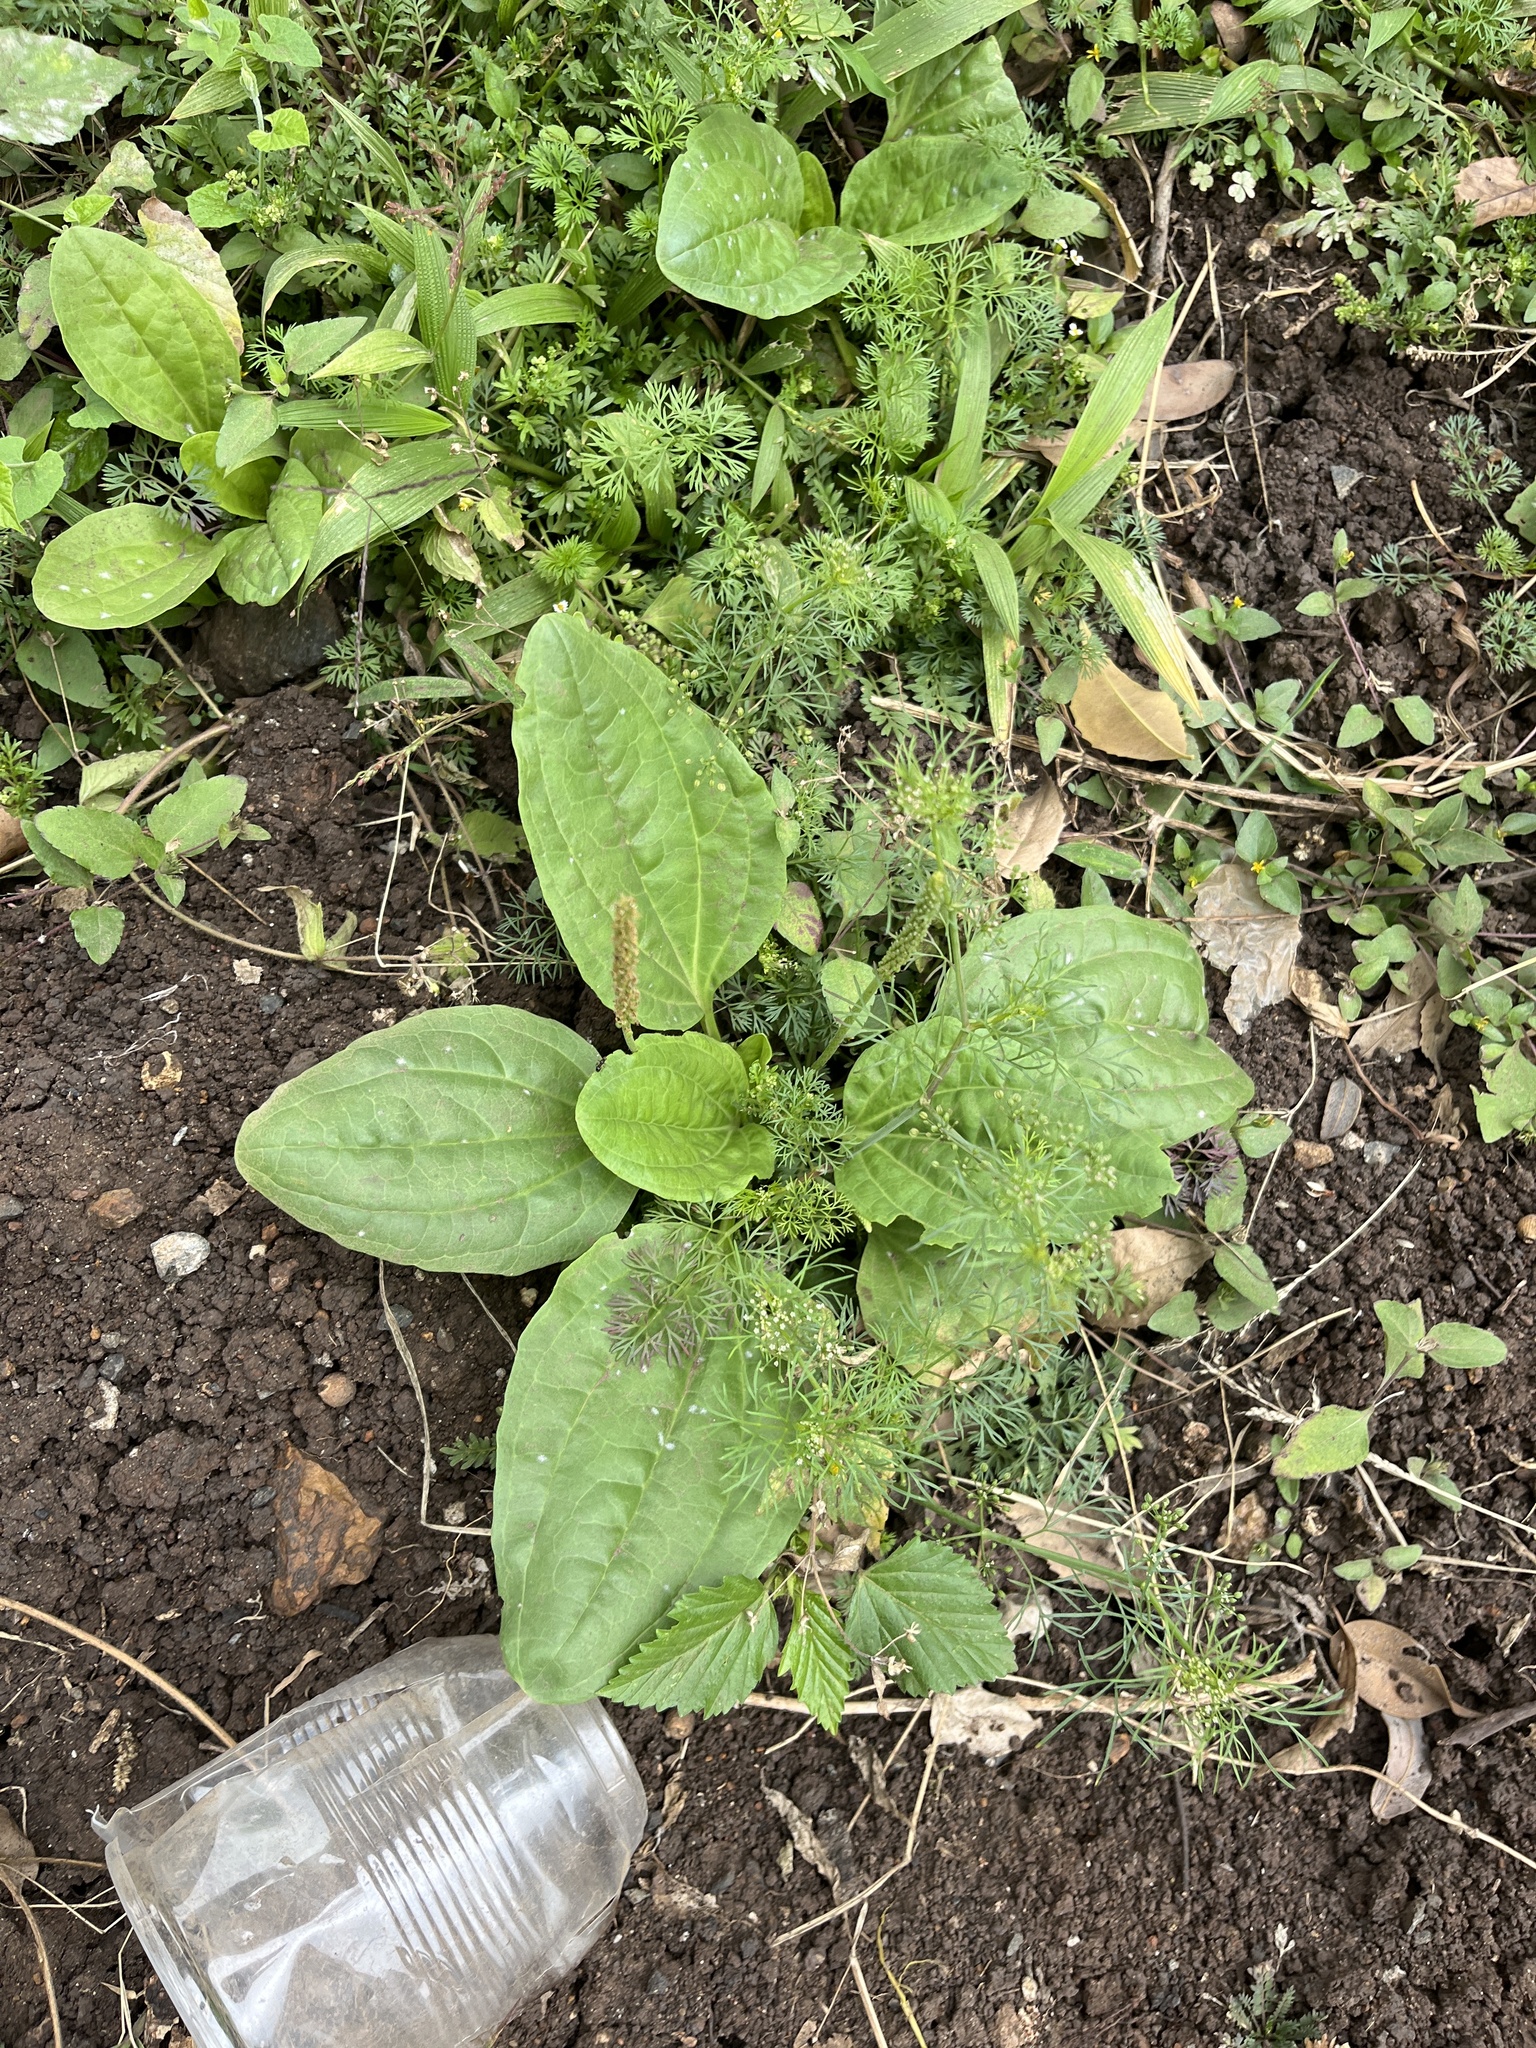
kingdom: Plantae
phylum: Tracheophyta
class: Magnoliopsida
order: Lamiales
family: Plantaginaceae
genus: Plantago
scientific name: Plantago major
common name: Common plantain
